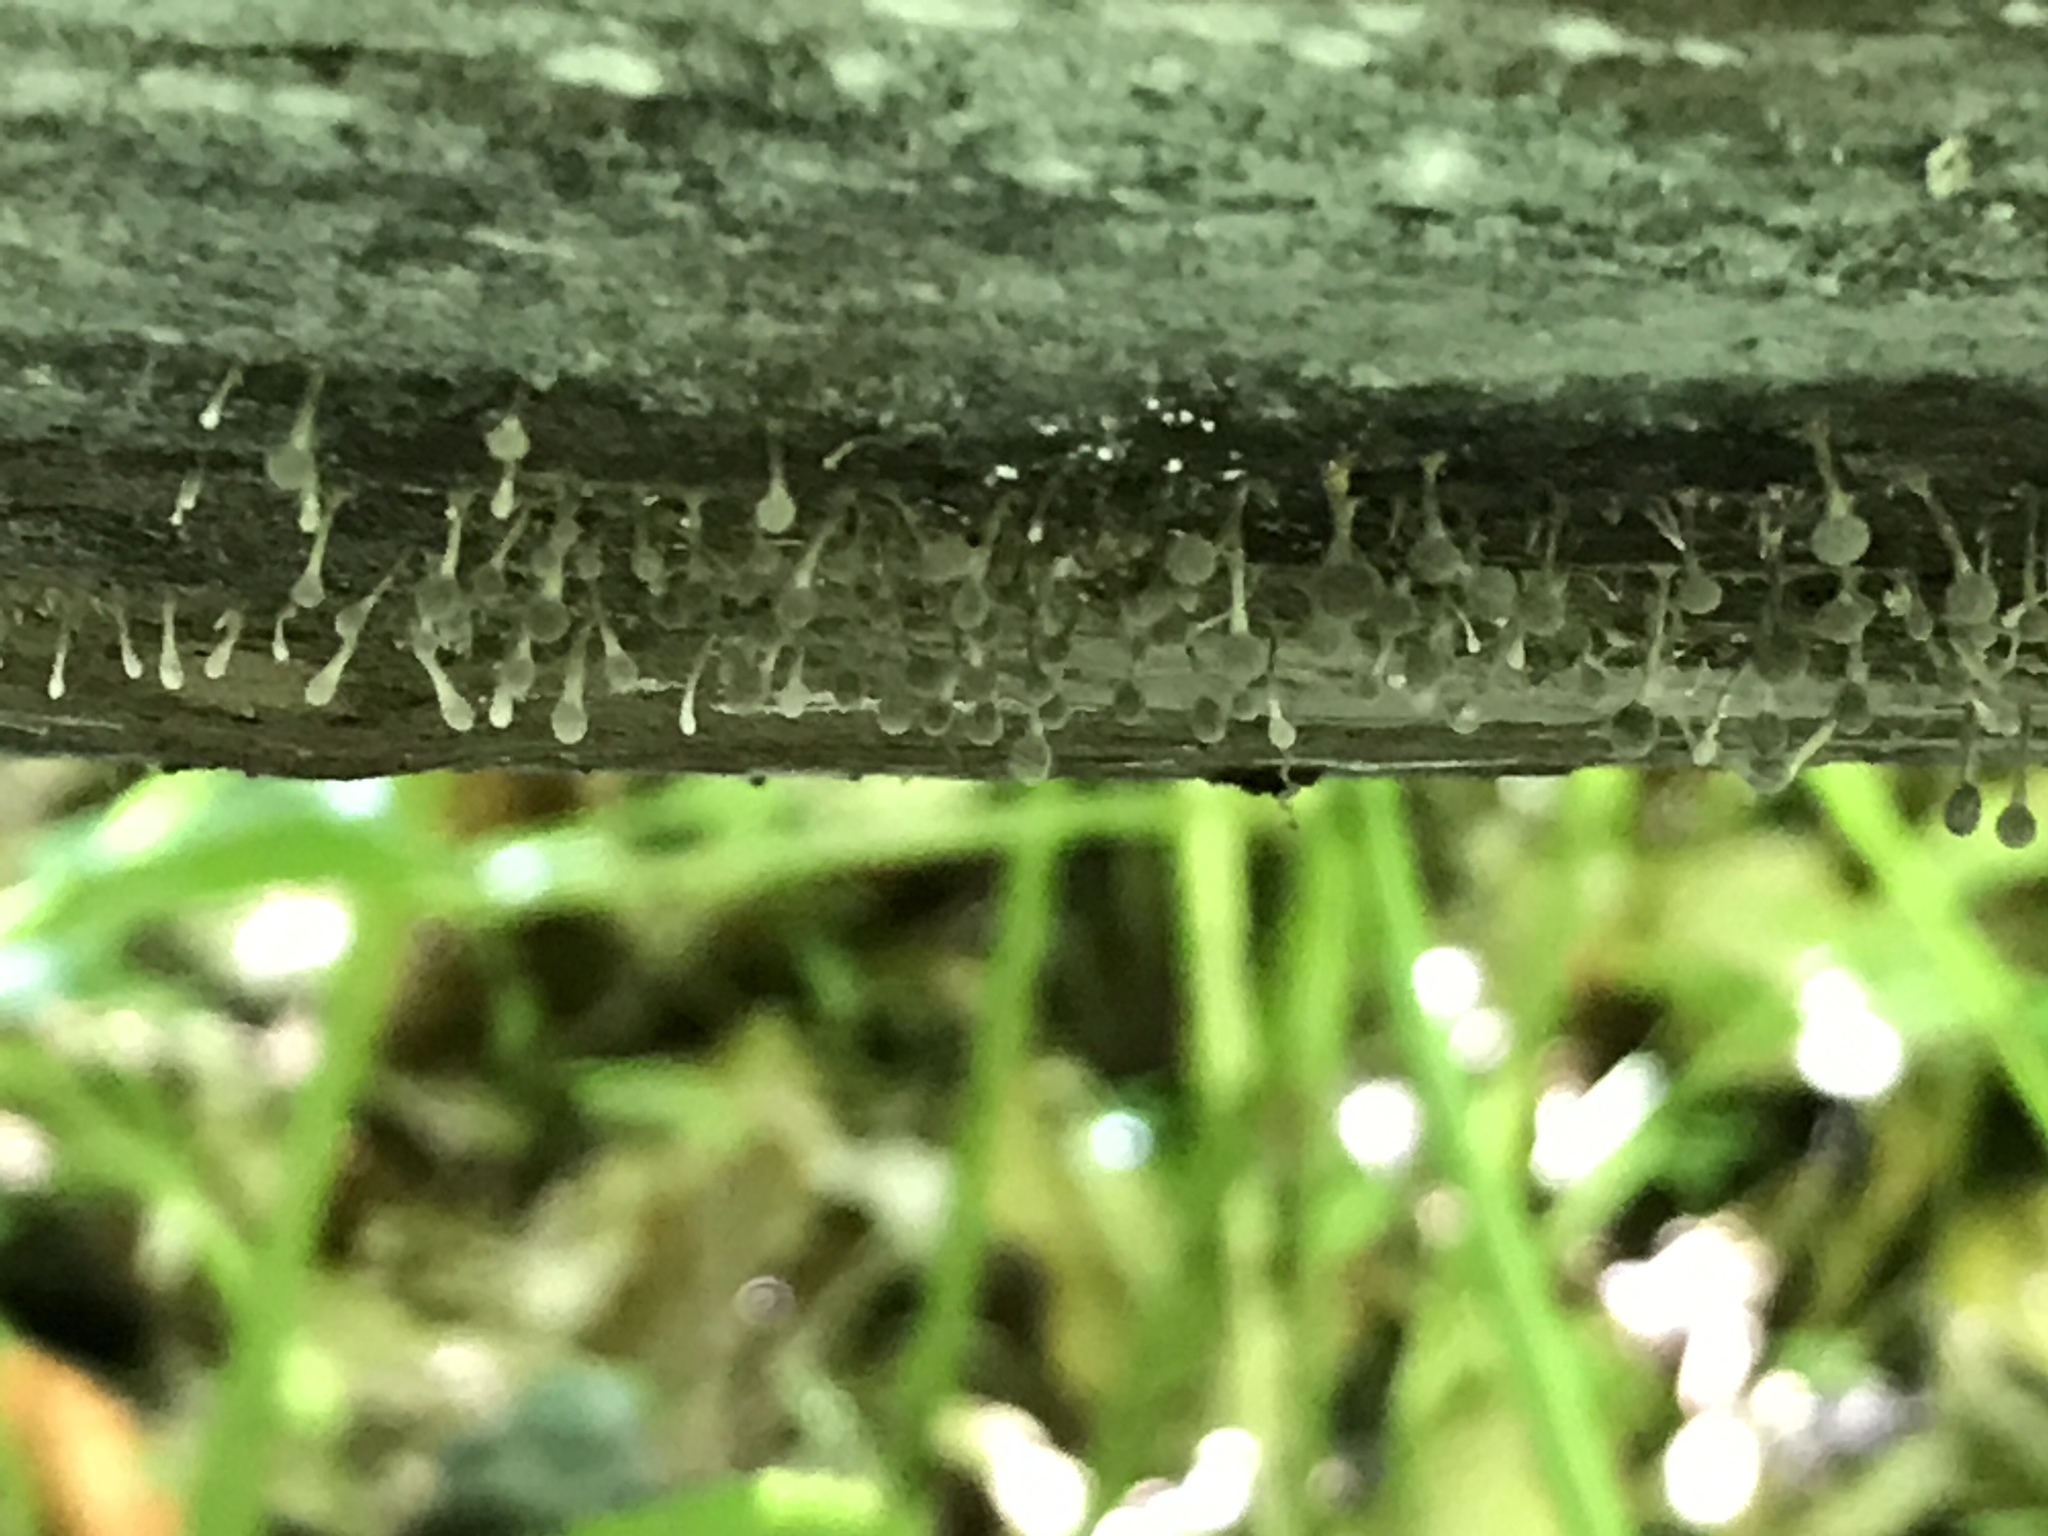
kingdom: Fungi
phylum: Basidiomycota
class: Atractiellomycetes
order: Atractiellales
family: Phleogenaceae
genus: Phleogena
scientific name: Phleogena faginea
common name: Fenugreek stalkball
